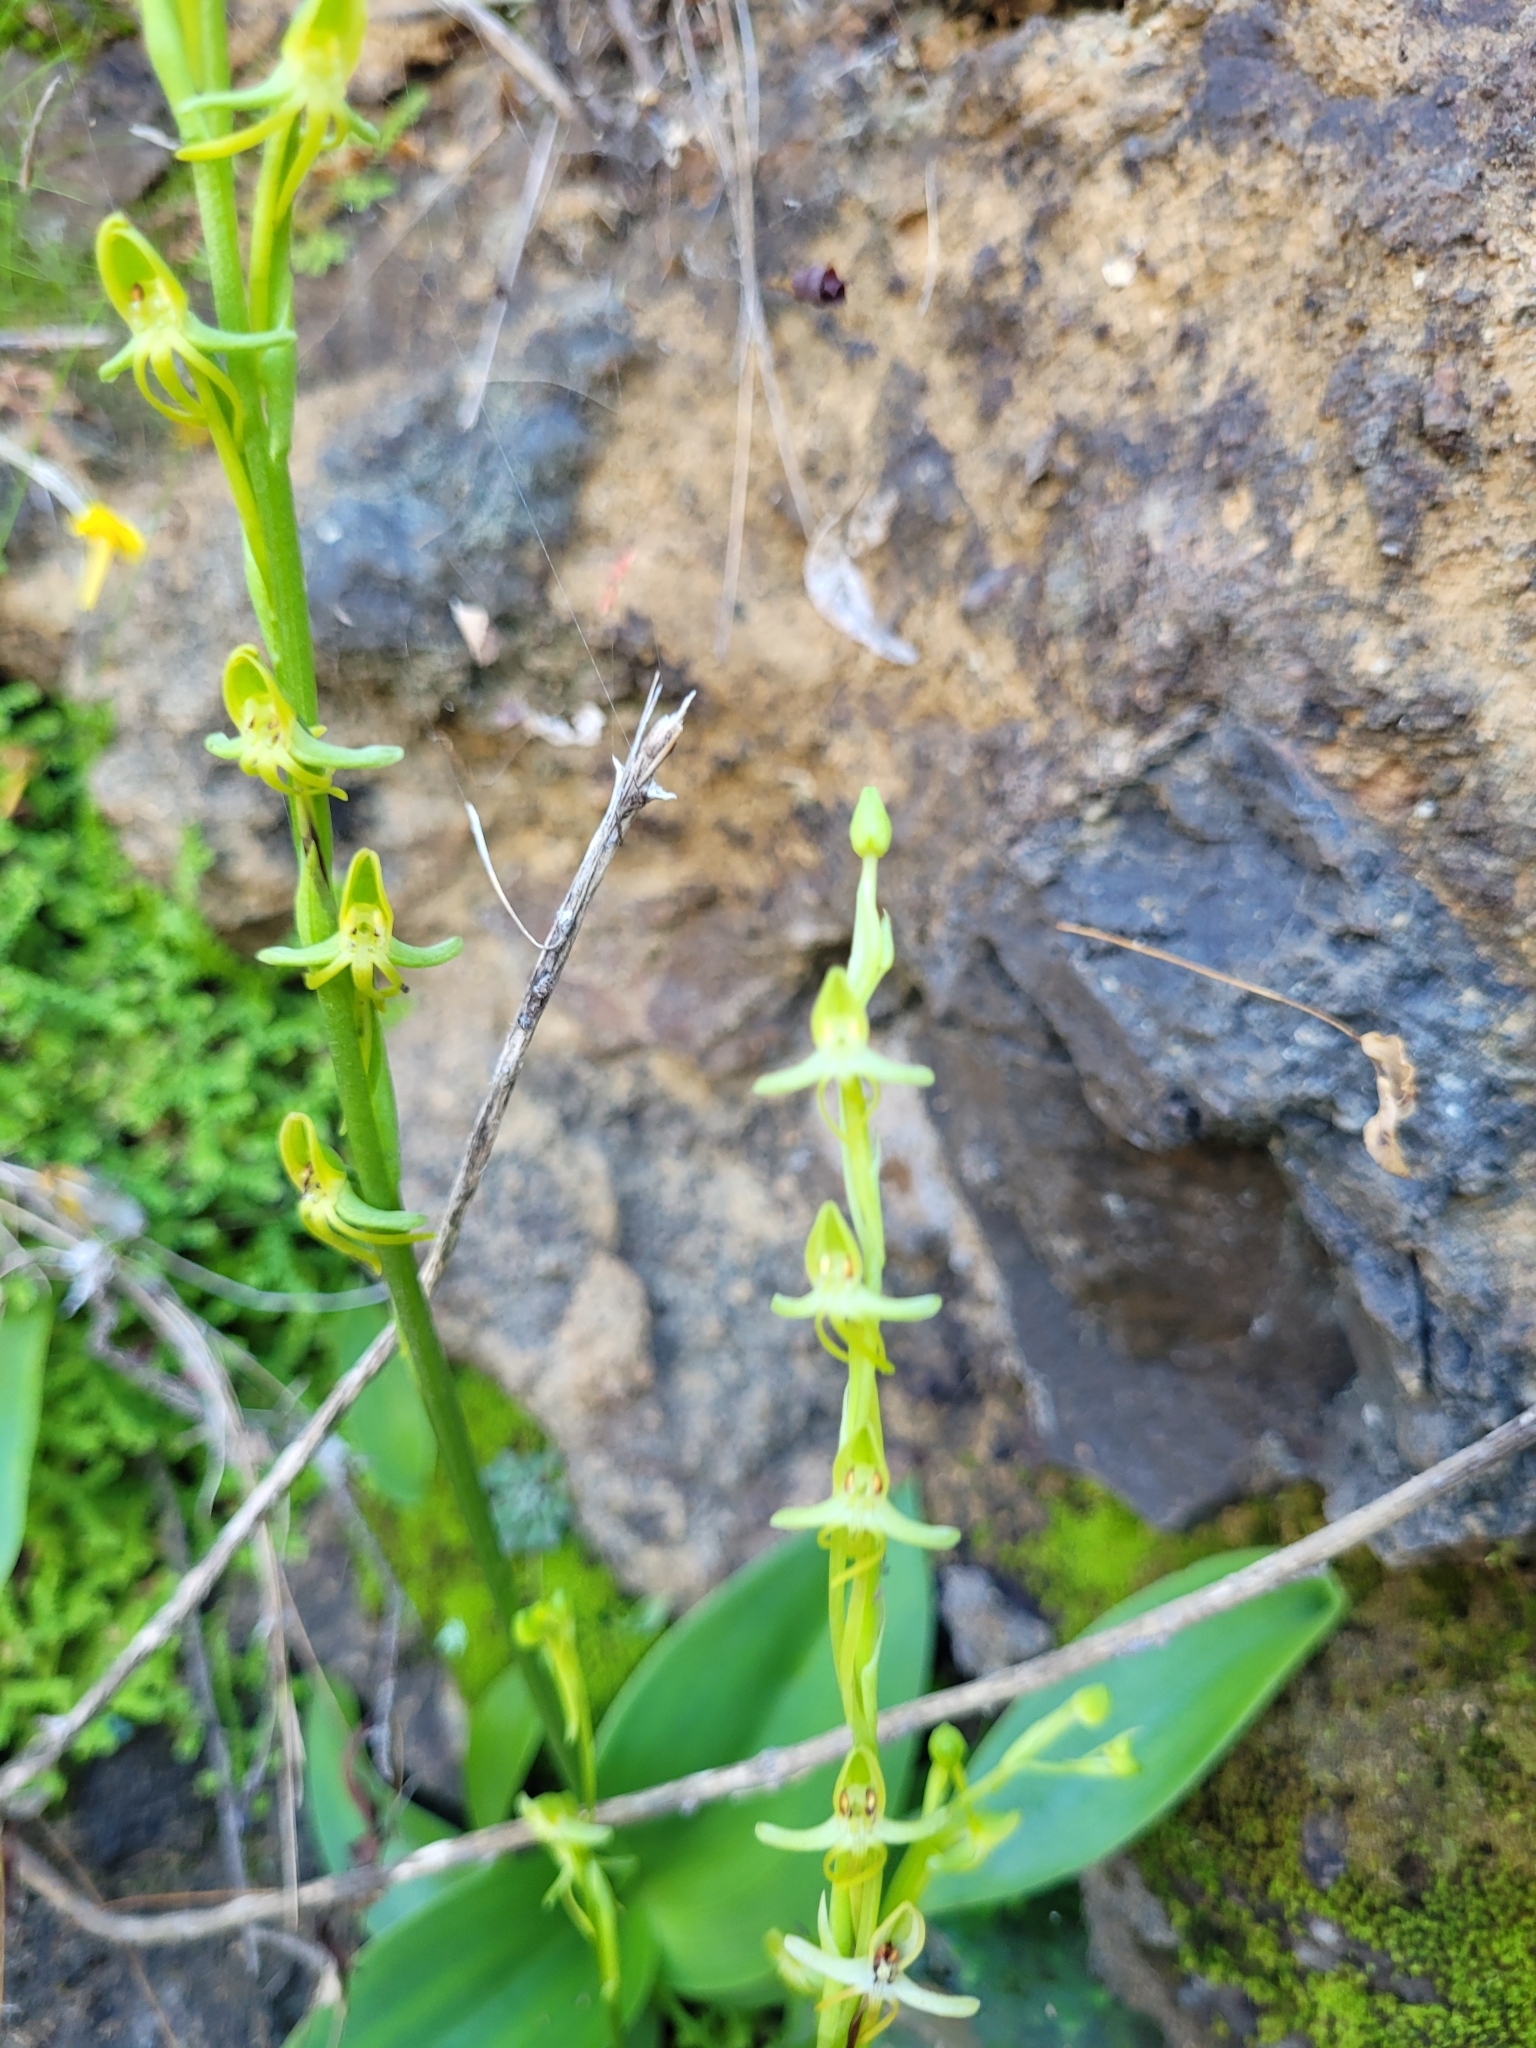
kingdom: Plantae
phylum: Tracheophyta
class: Liliopsida
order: Asparagales
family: Orchidaceae
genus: Habenaria
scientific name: Habenaria tridactylites
